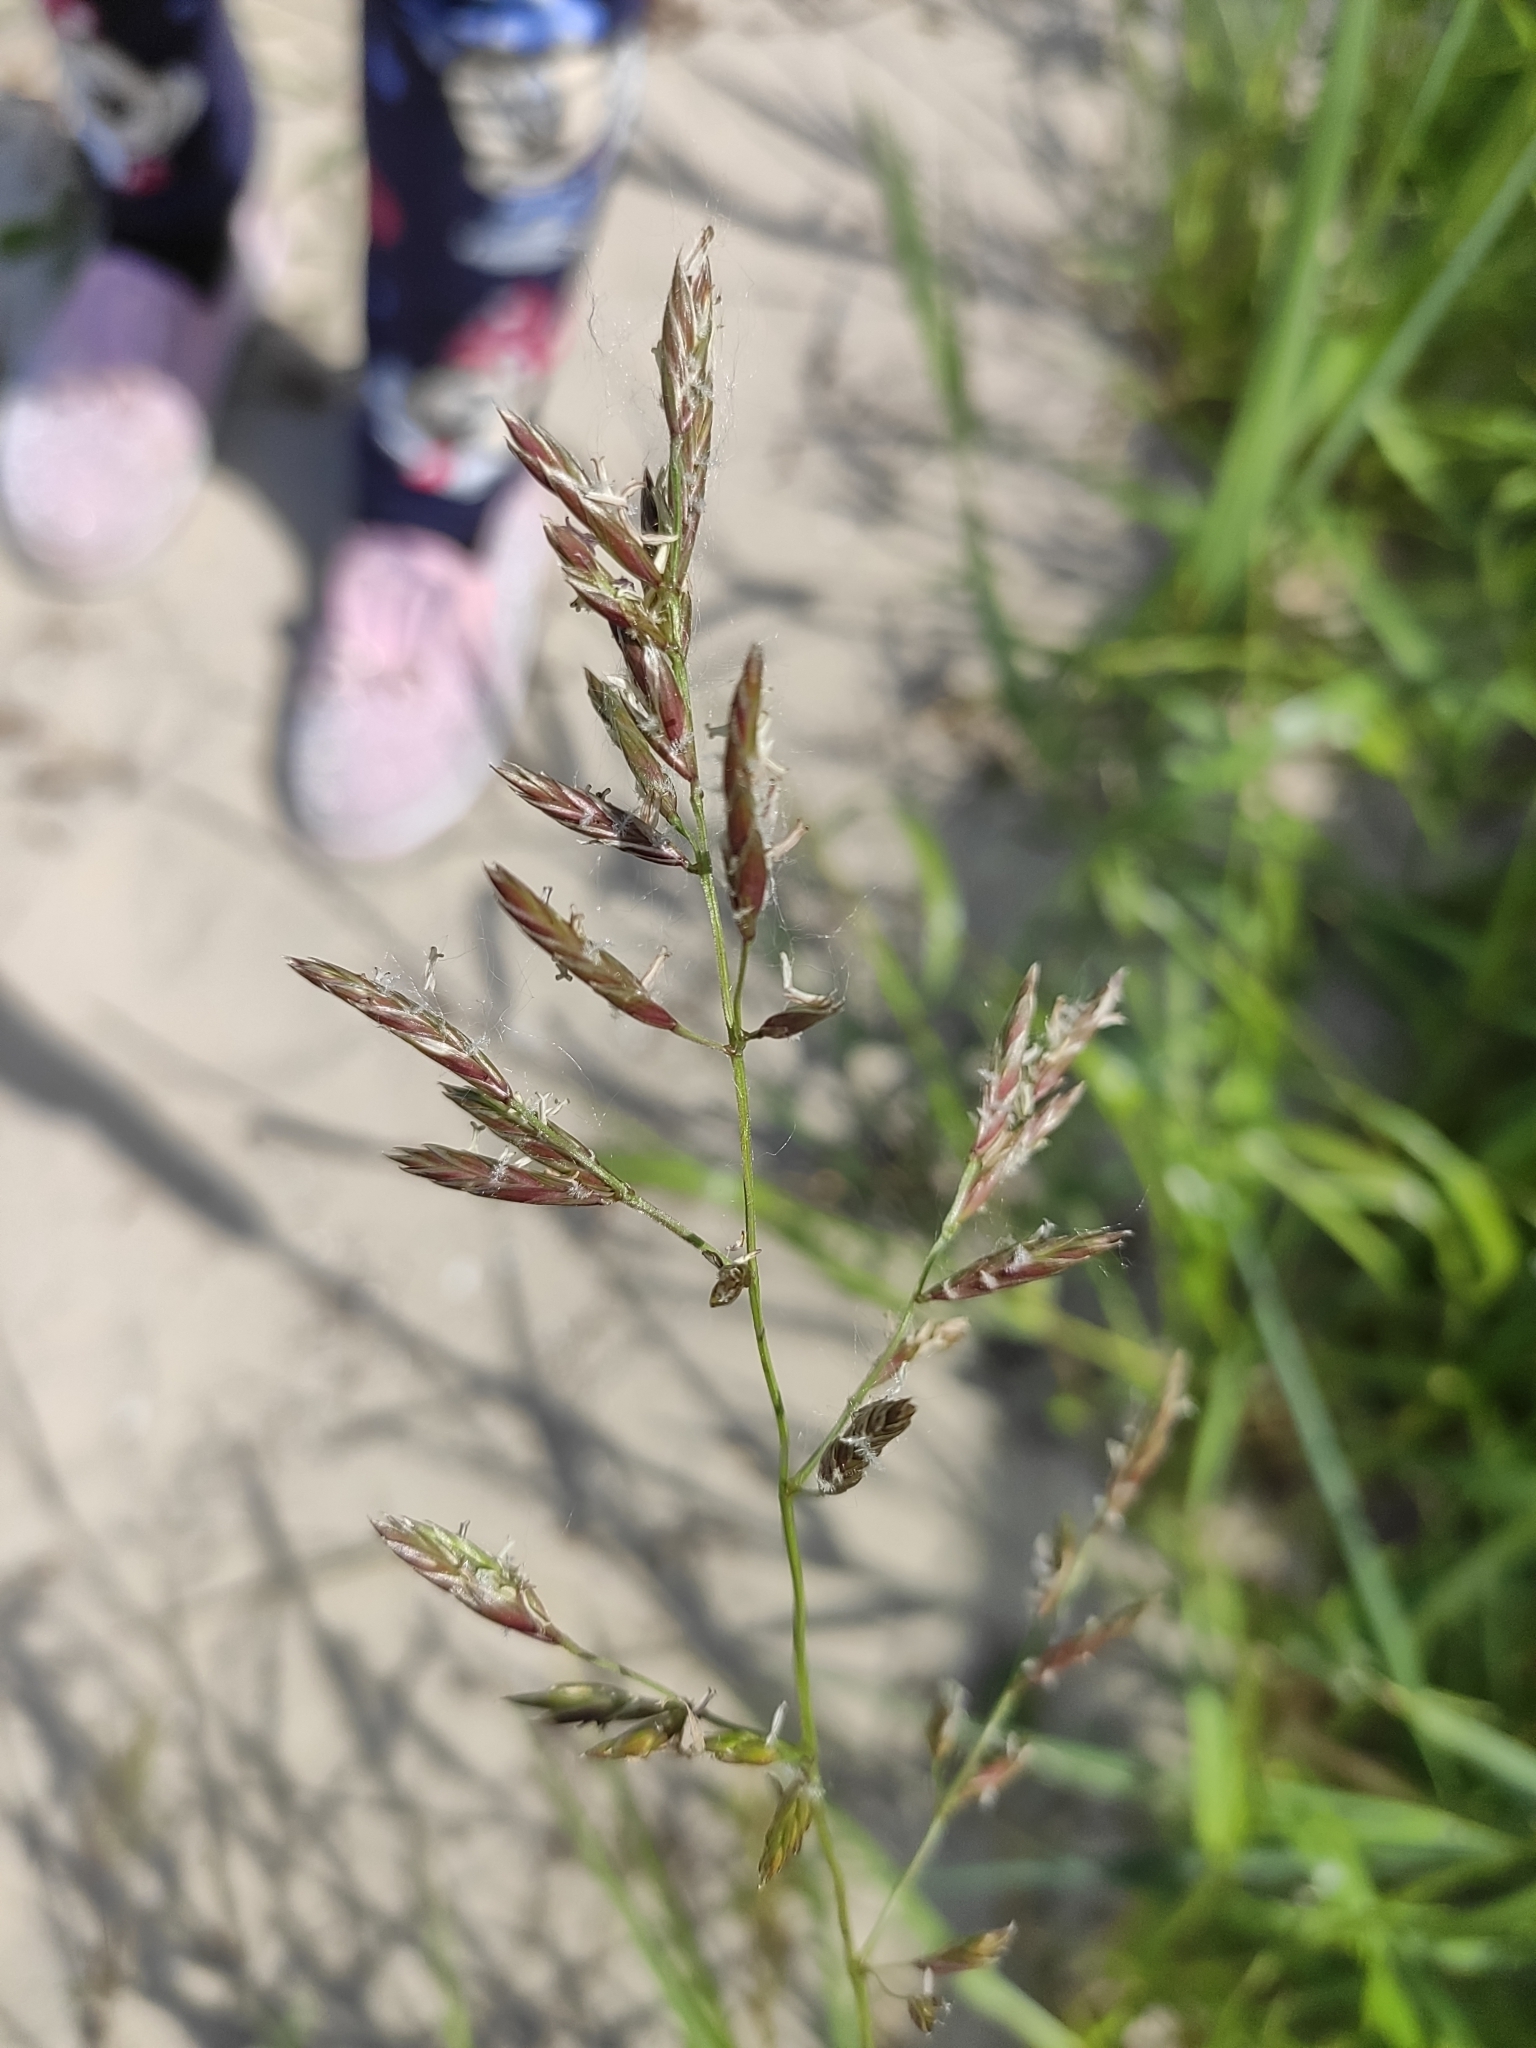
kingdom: Plantae
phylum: Tracheophyta
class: Liliopsida
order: Poales
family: Poaceae
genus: Lolium
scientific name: Lolium pratense
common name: Dover grass
